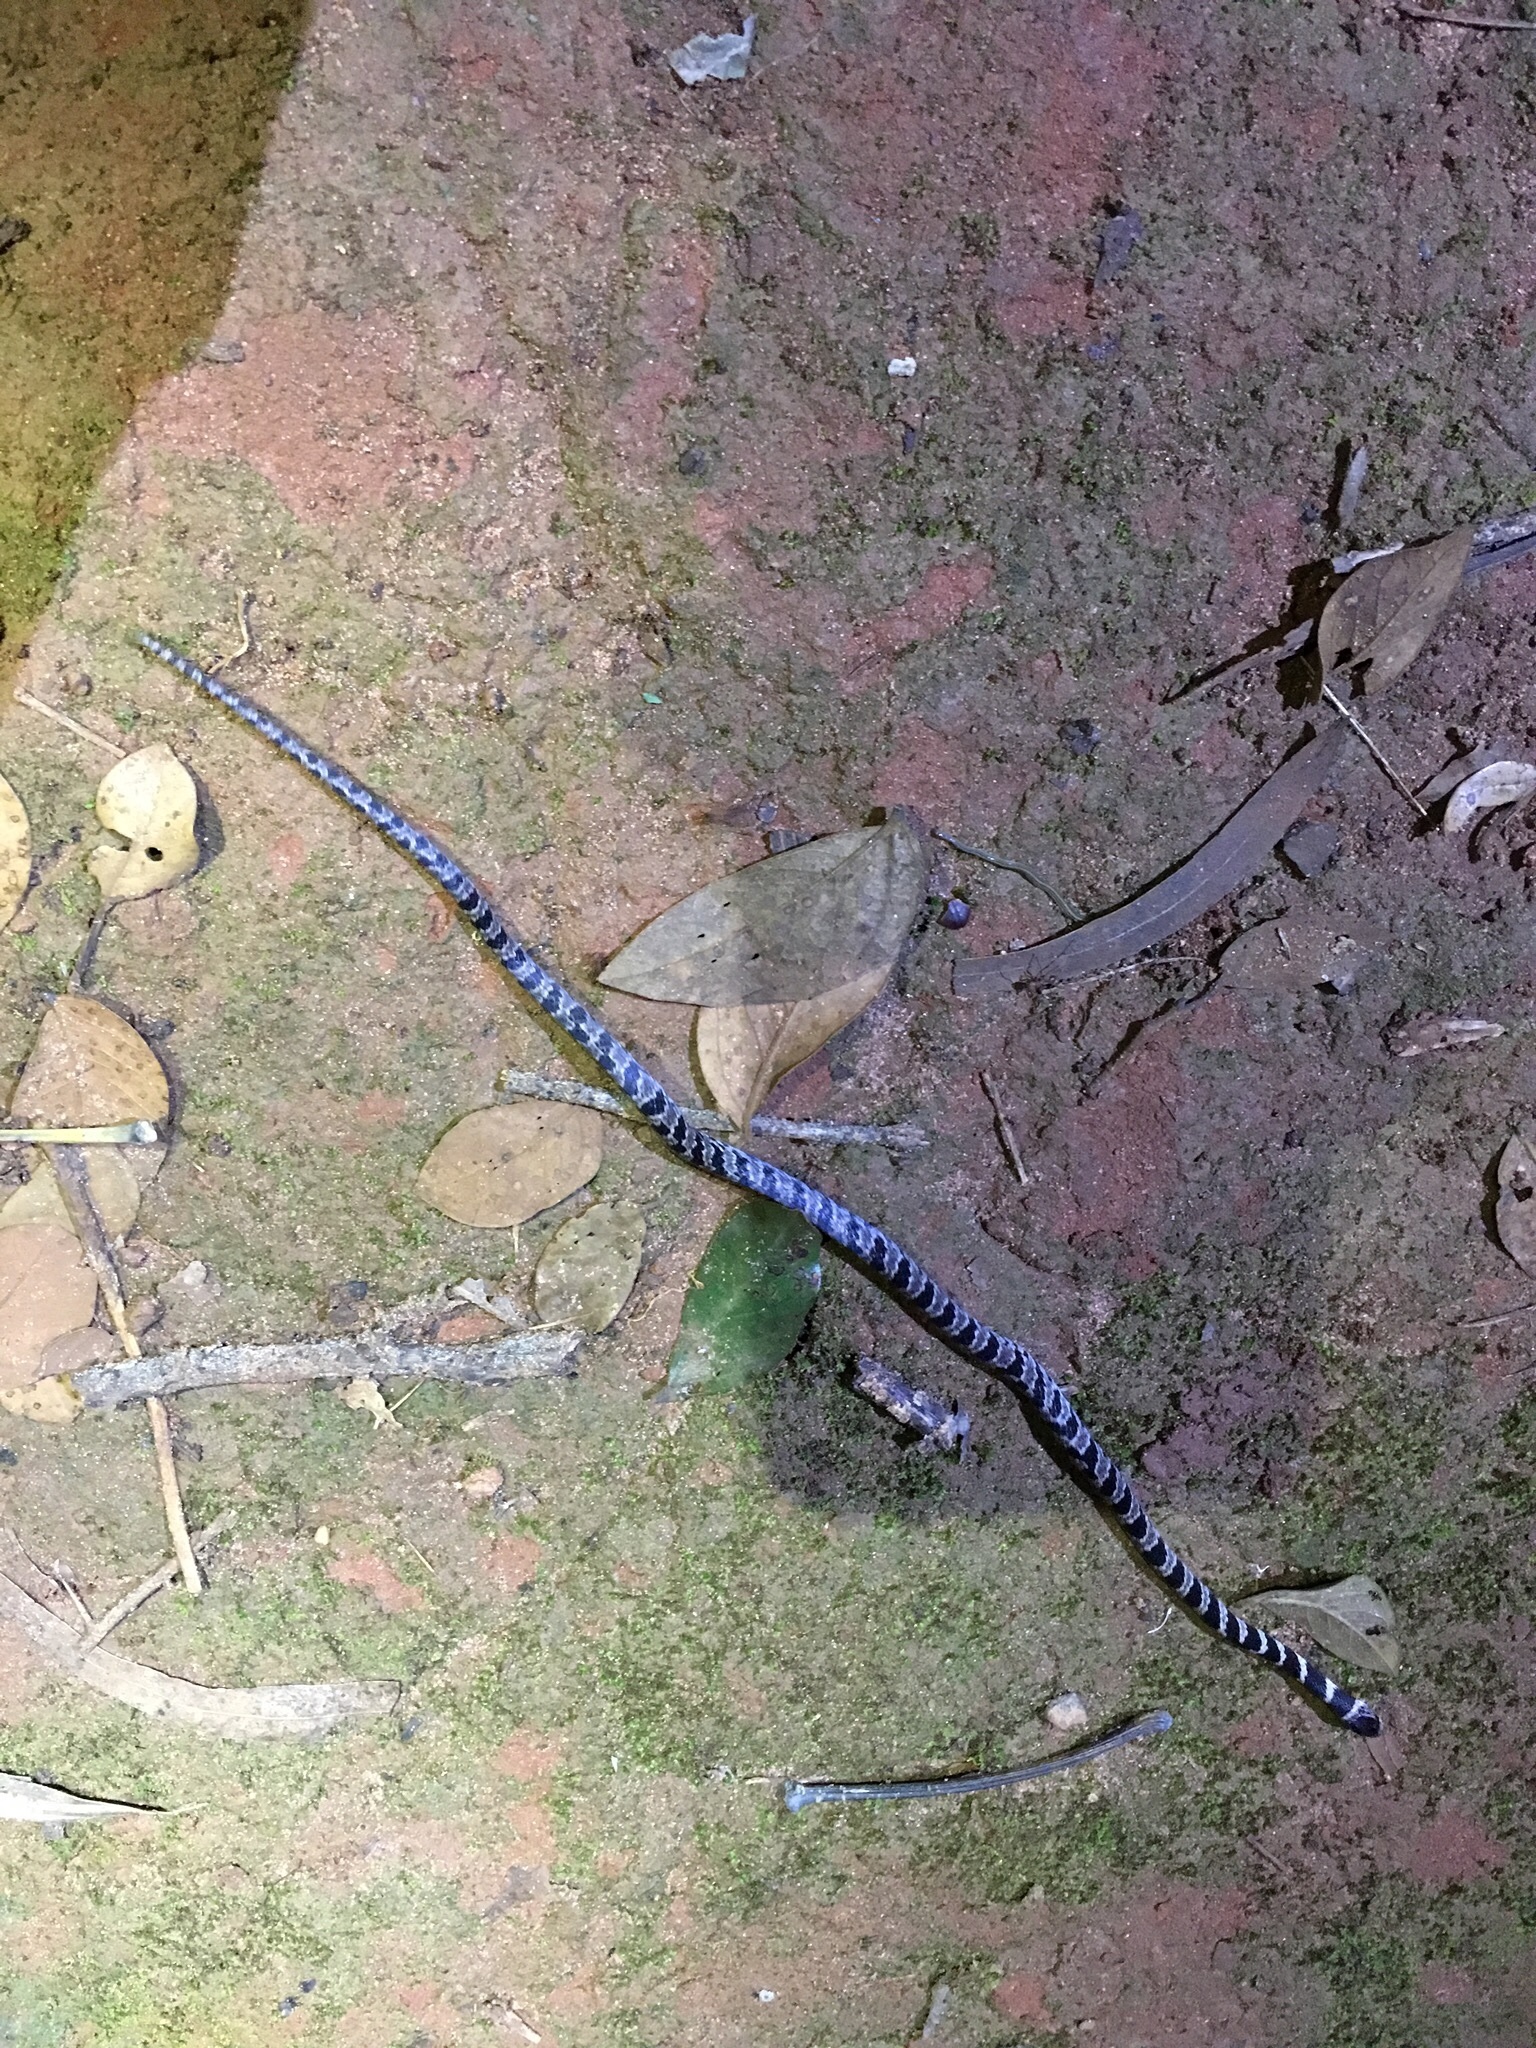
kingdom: Animalia
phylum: Chordata
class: Squamata
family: Colubridae
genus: Dipsas
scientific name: Dipsas mikanii
